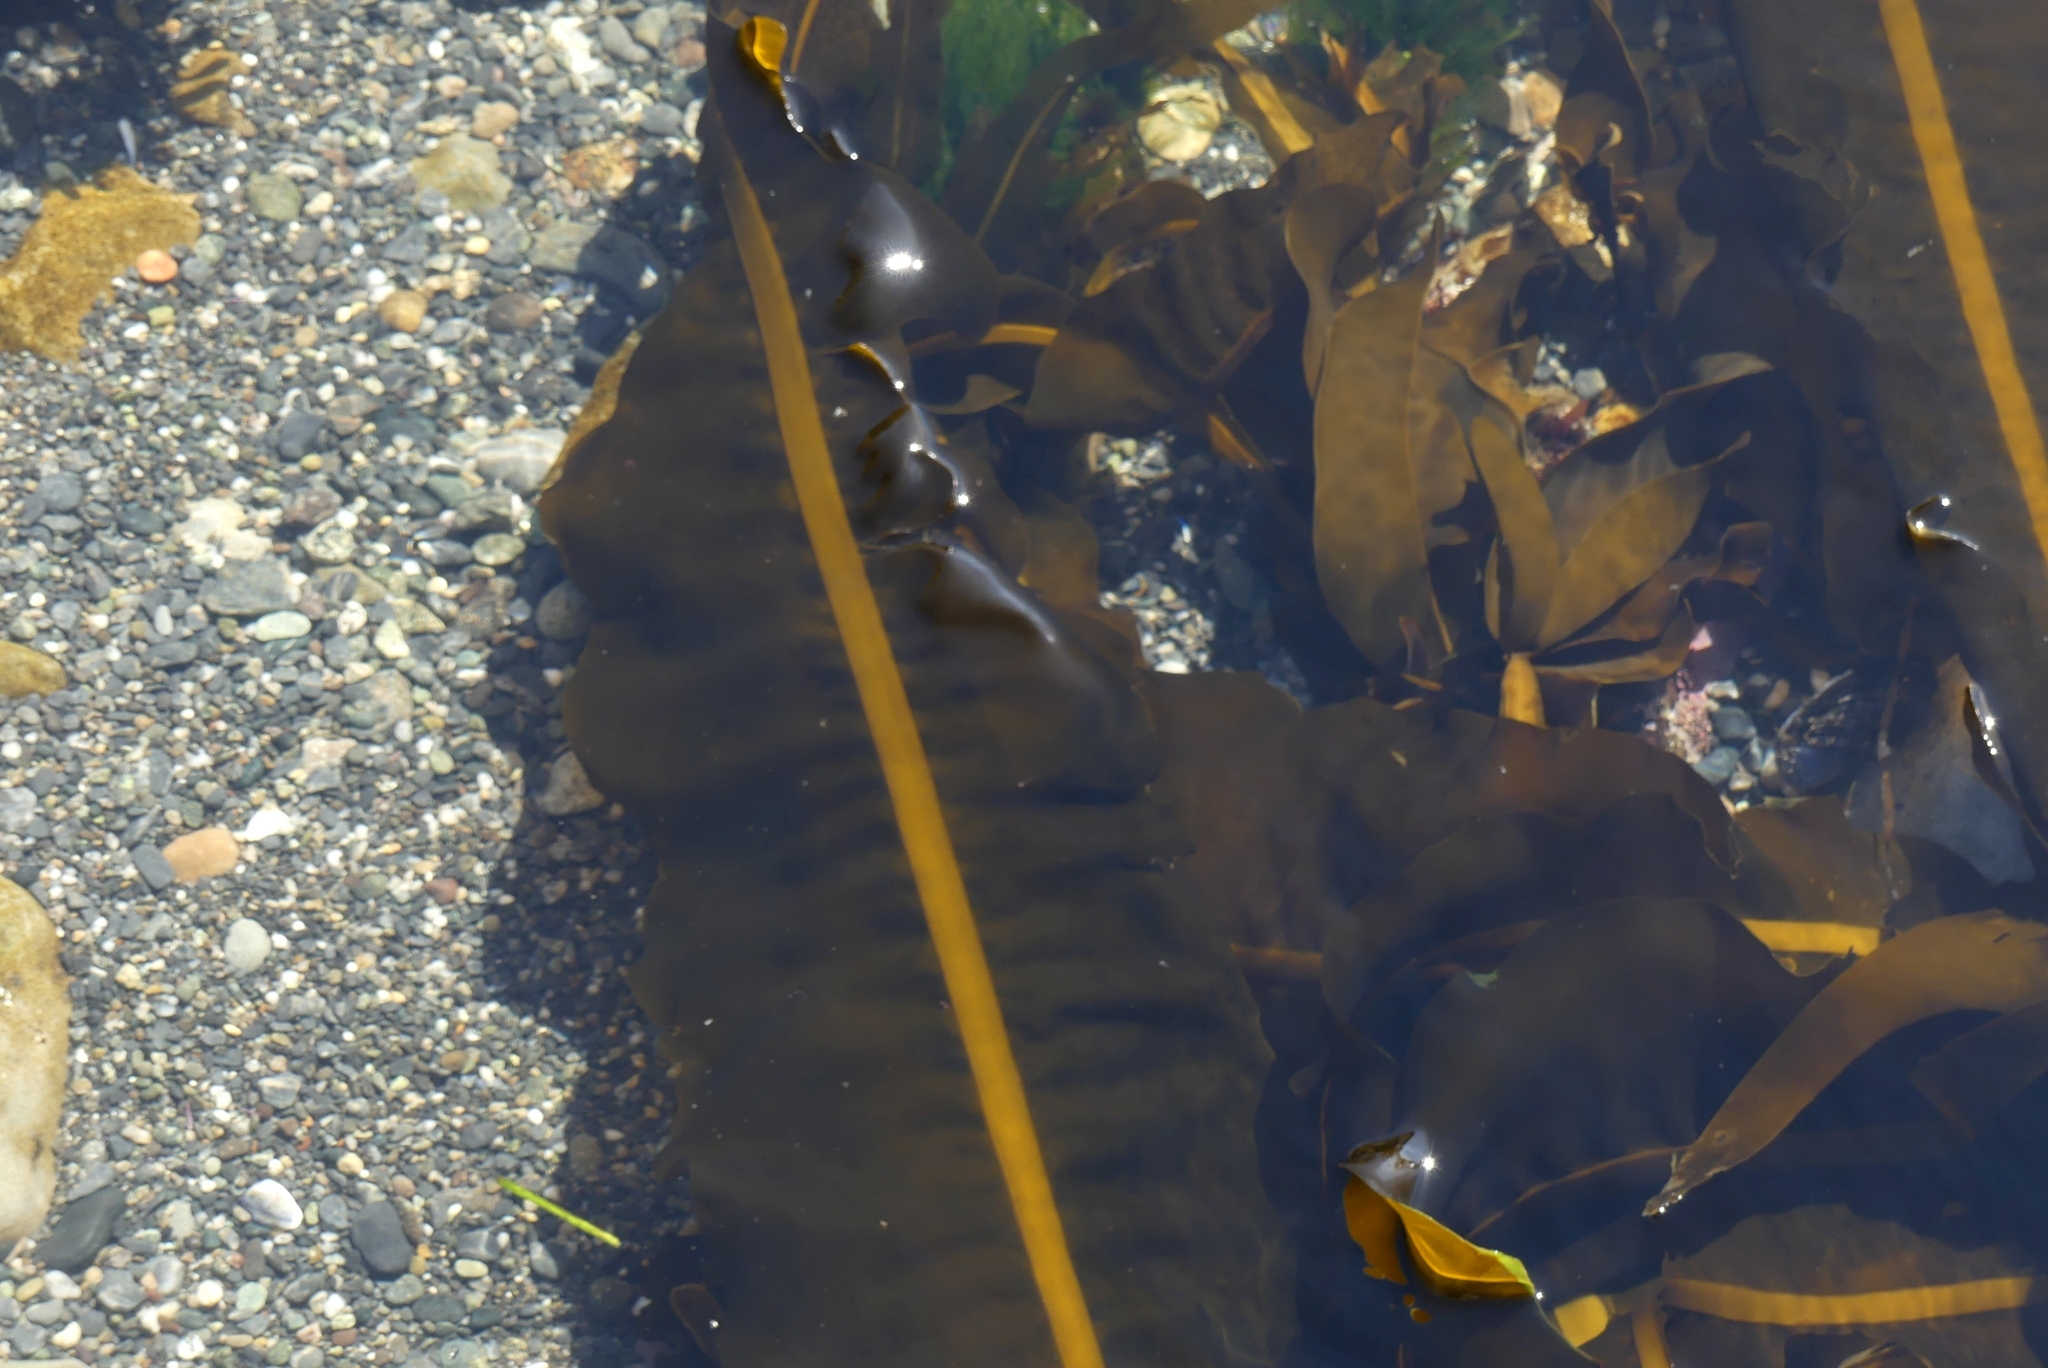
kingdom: Chromista
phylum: Ochrophyta
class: Phaeophyceae
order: Laminariales
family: Alariaceae
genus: Alaria
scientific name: Alaria marginata
